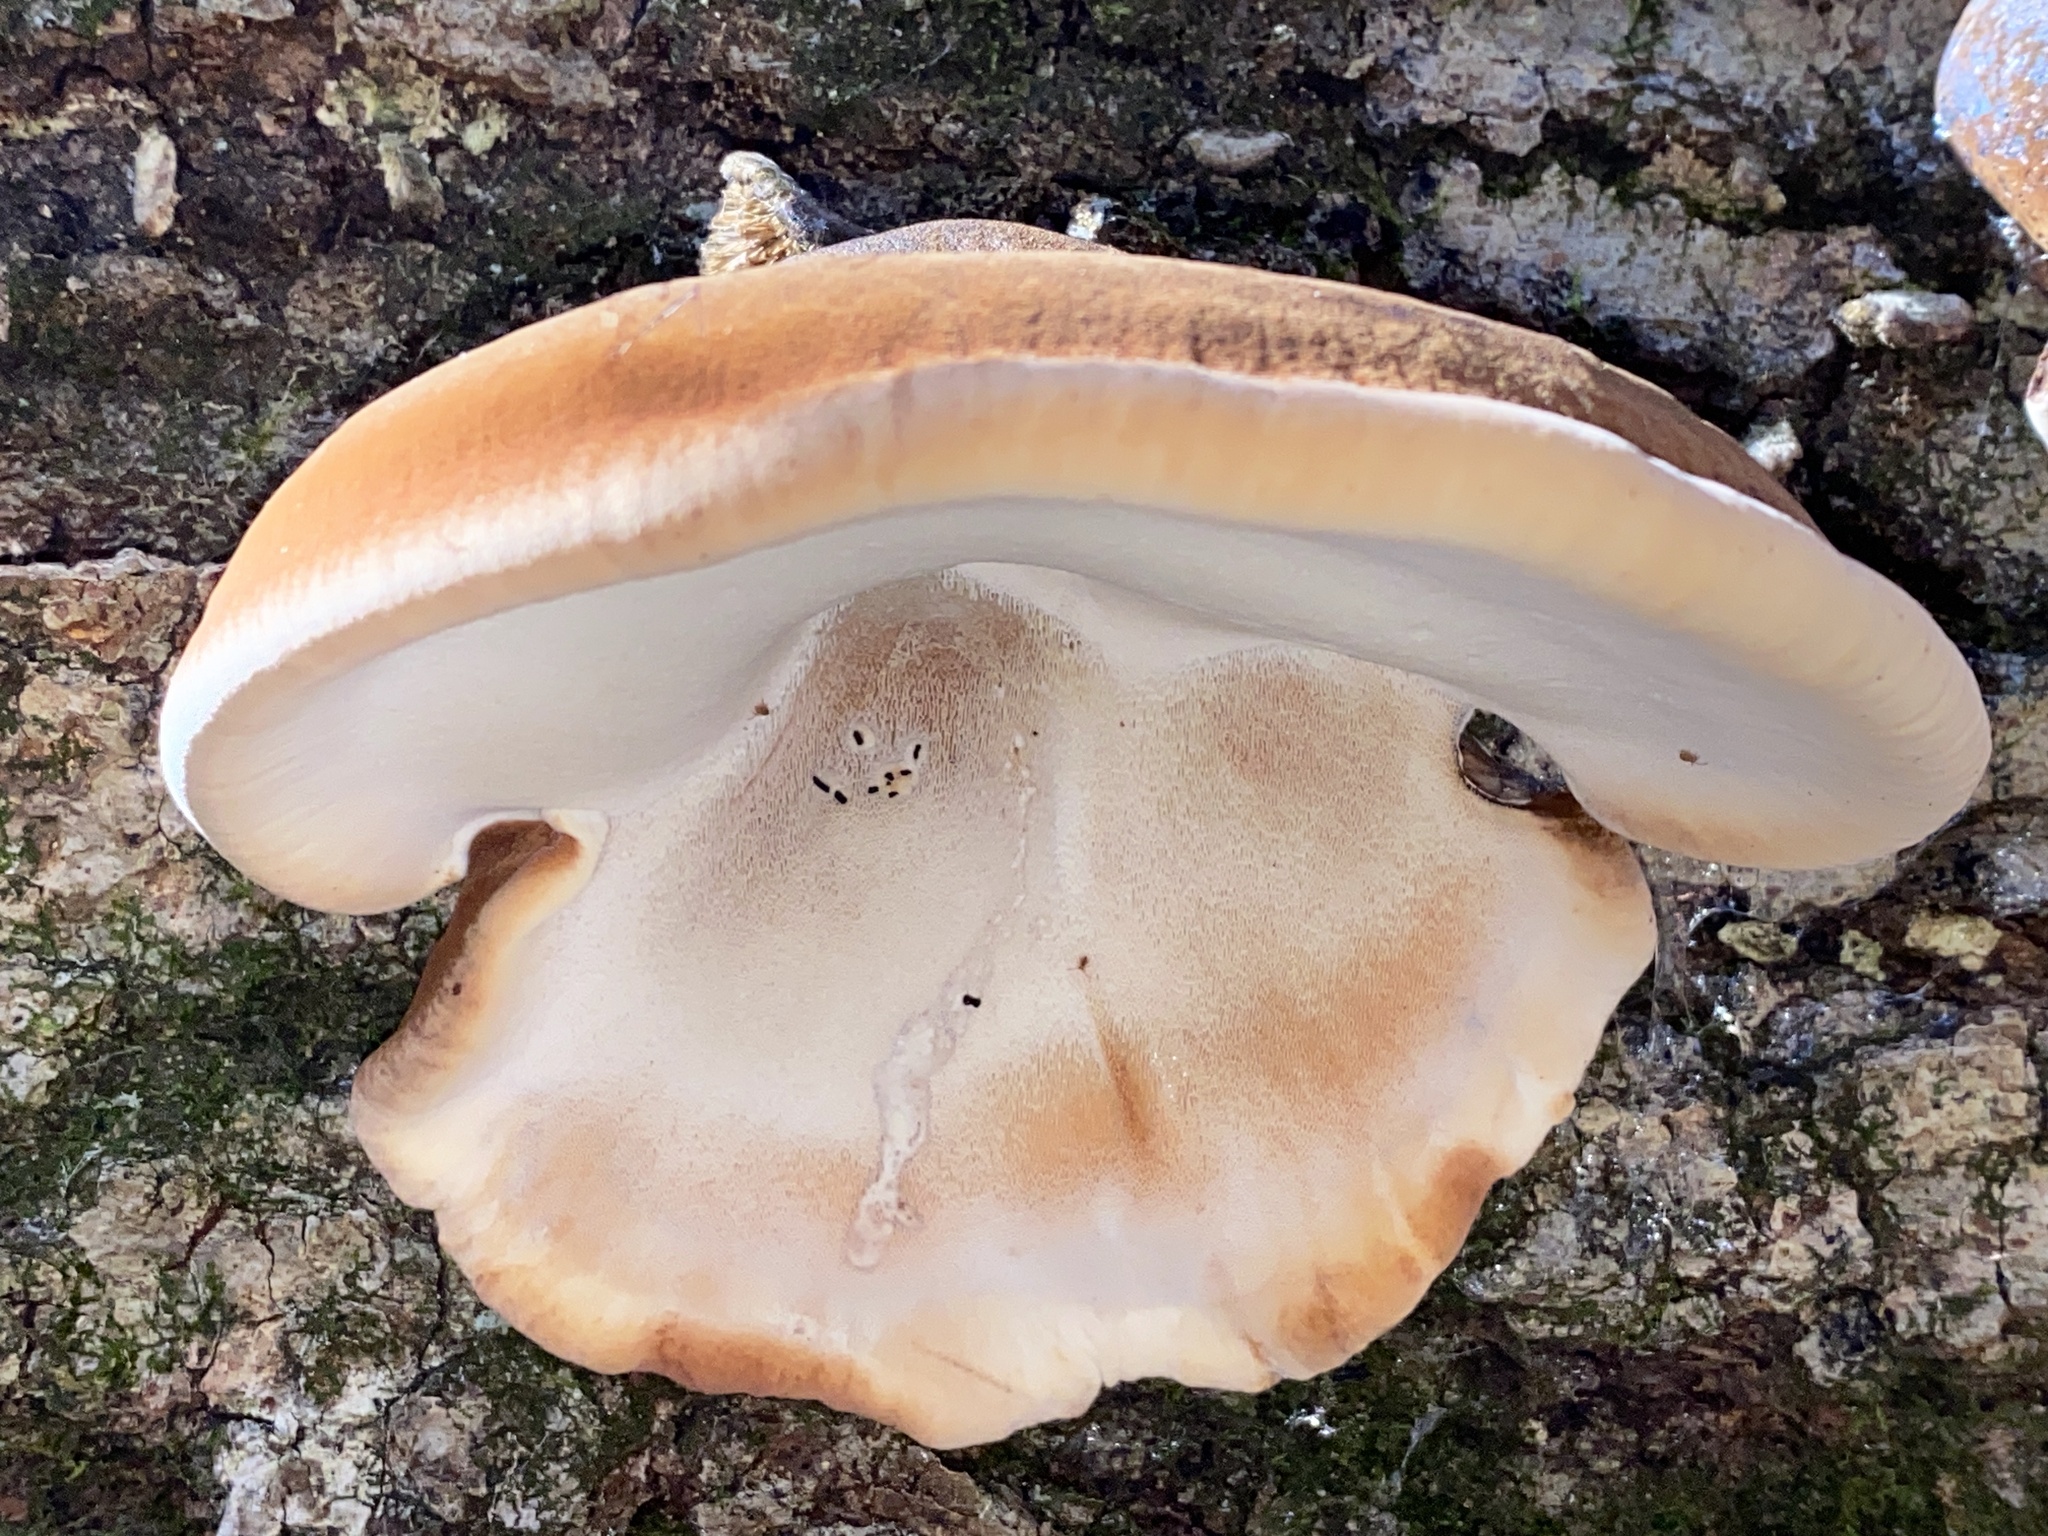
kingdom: Fungi
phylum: Basidiomycota
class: Agaricomycetes
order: Polyporales
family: Ischnodermataceae
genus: Ischnoderma
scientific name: Ischnoderma resinosum
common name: Resinous polypore
